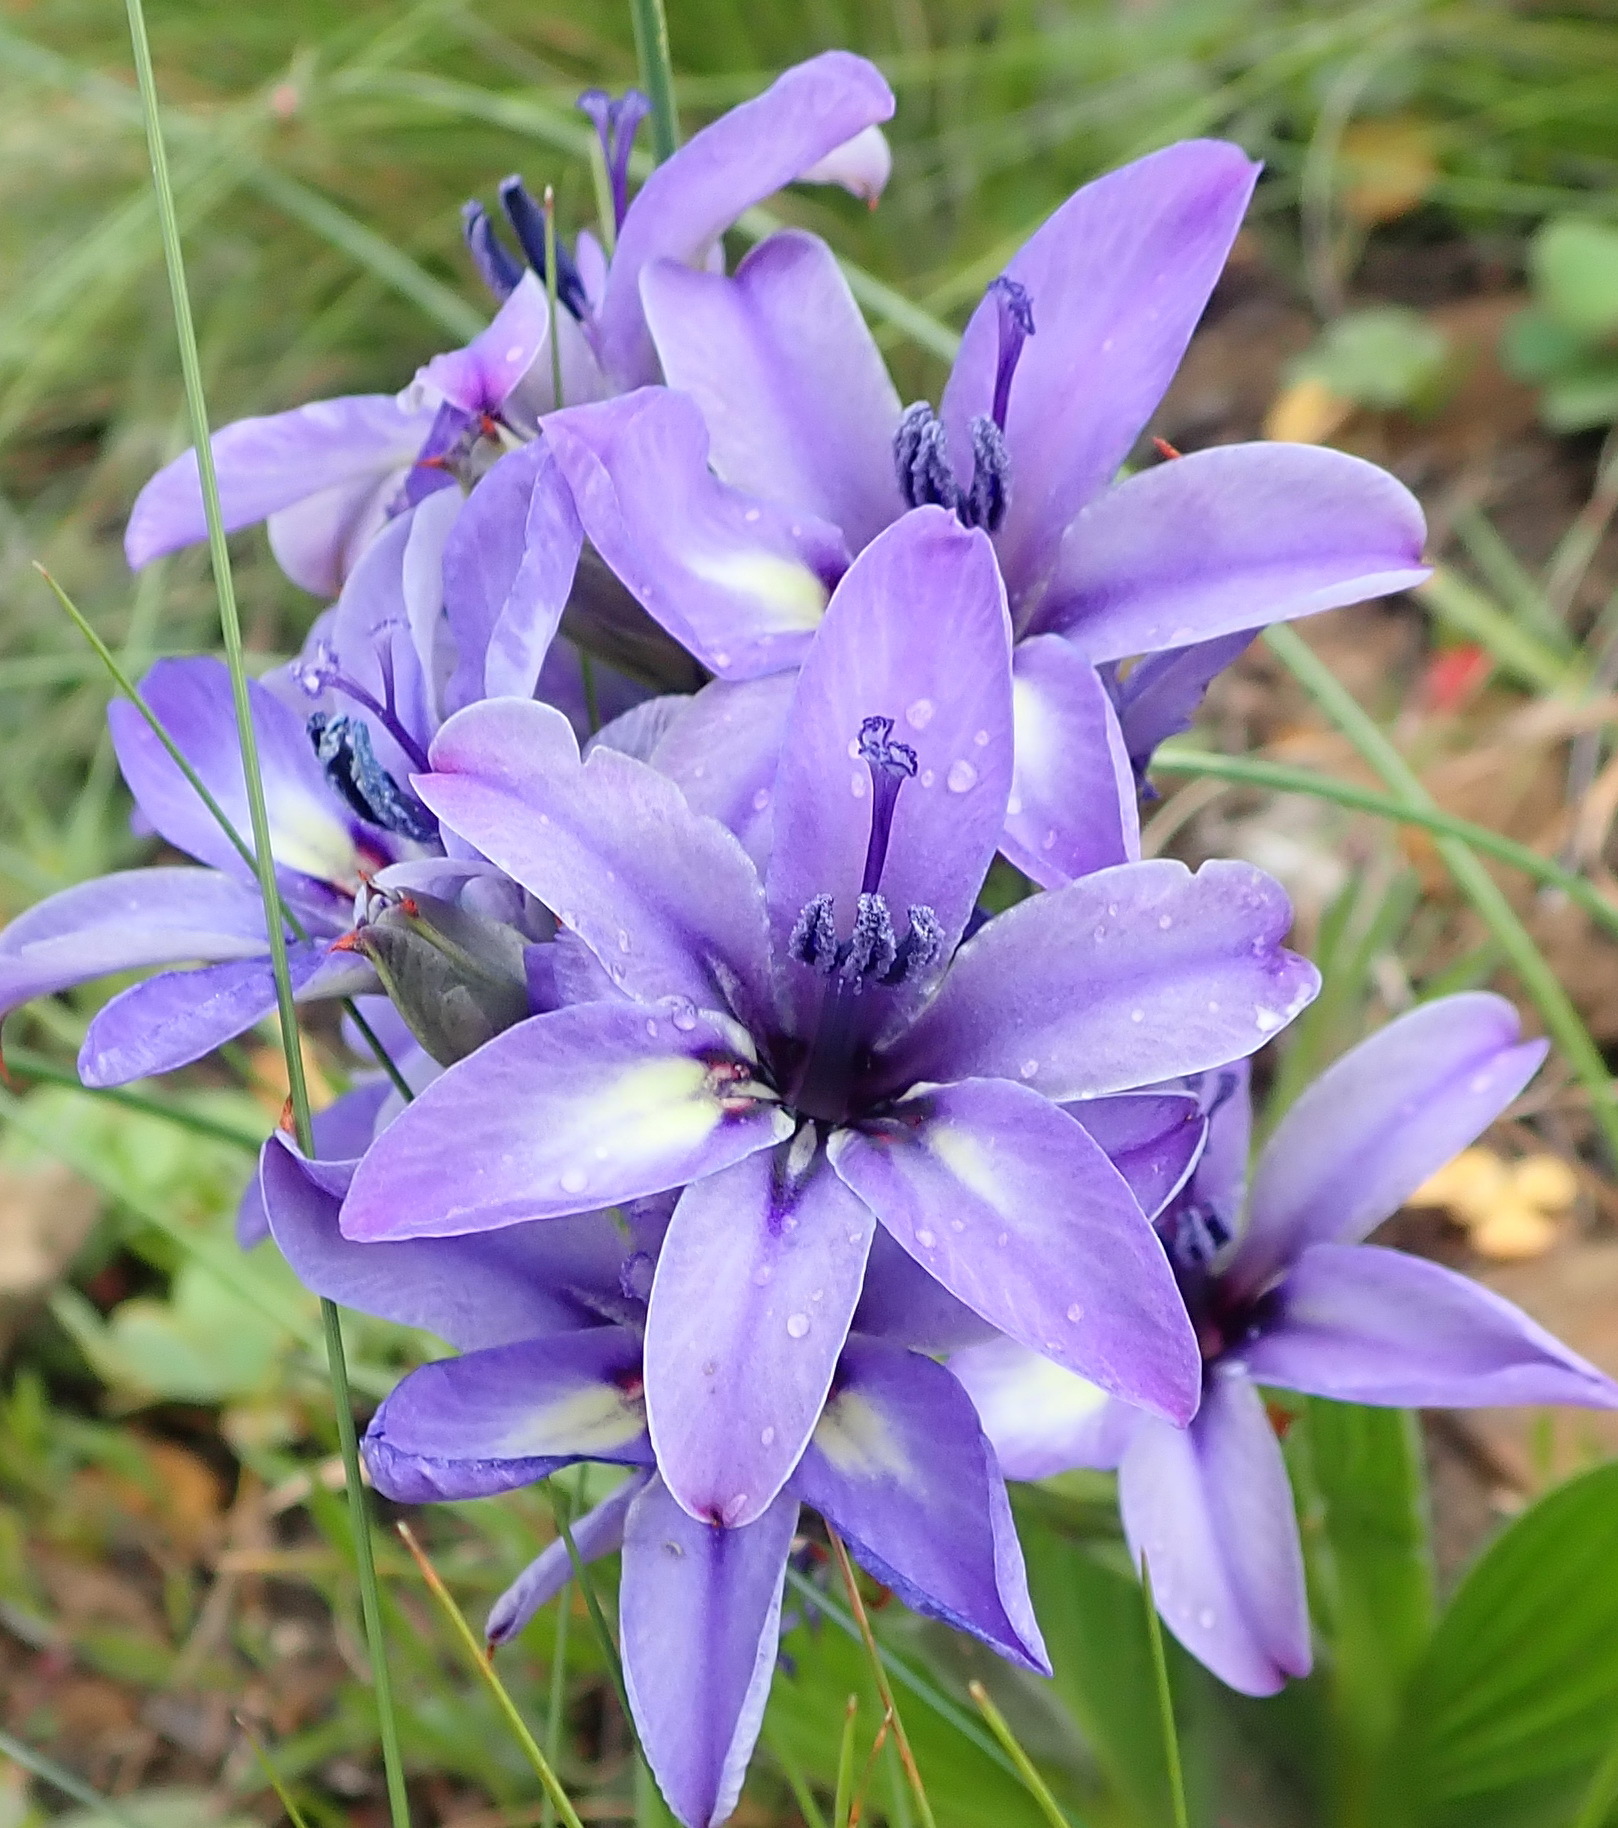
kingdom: Plantae
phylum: Tracheophyta
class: Liliopsida
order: Asparagales
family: Iridaceae
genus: Babiana
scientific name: Babiana fragrans
